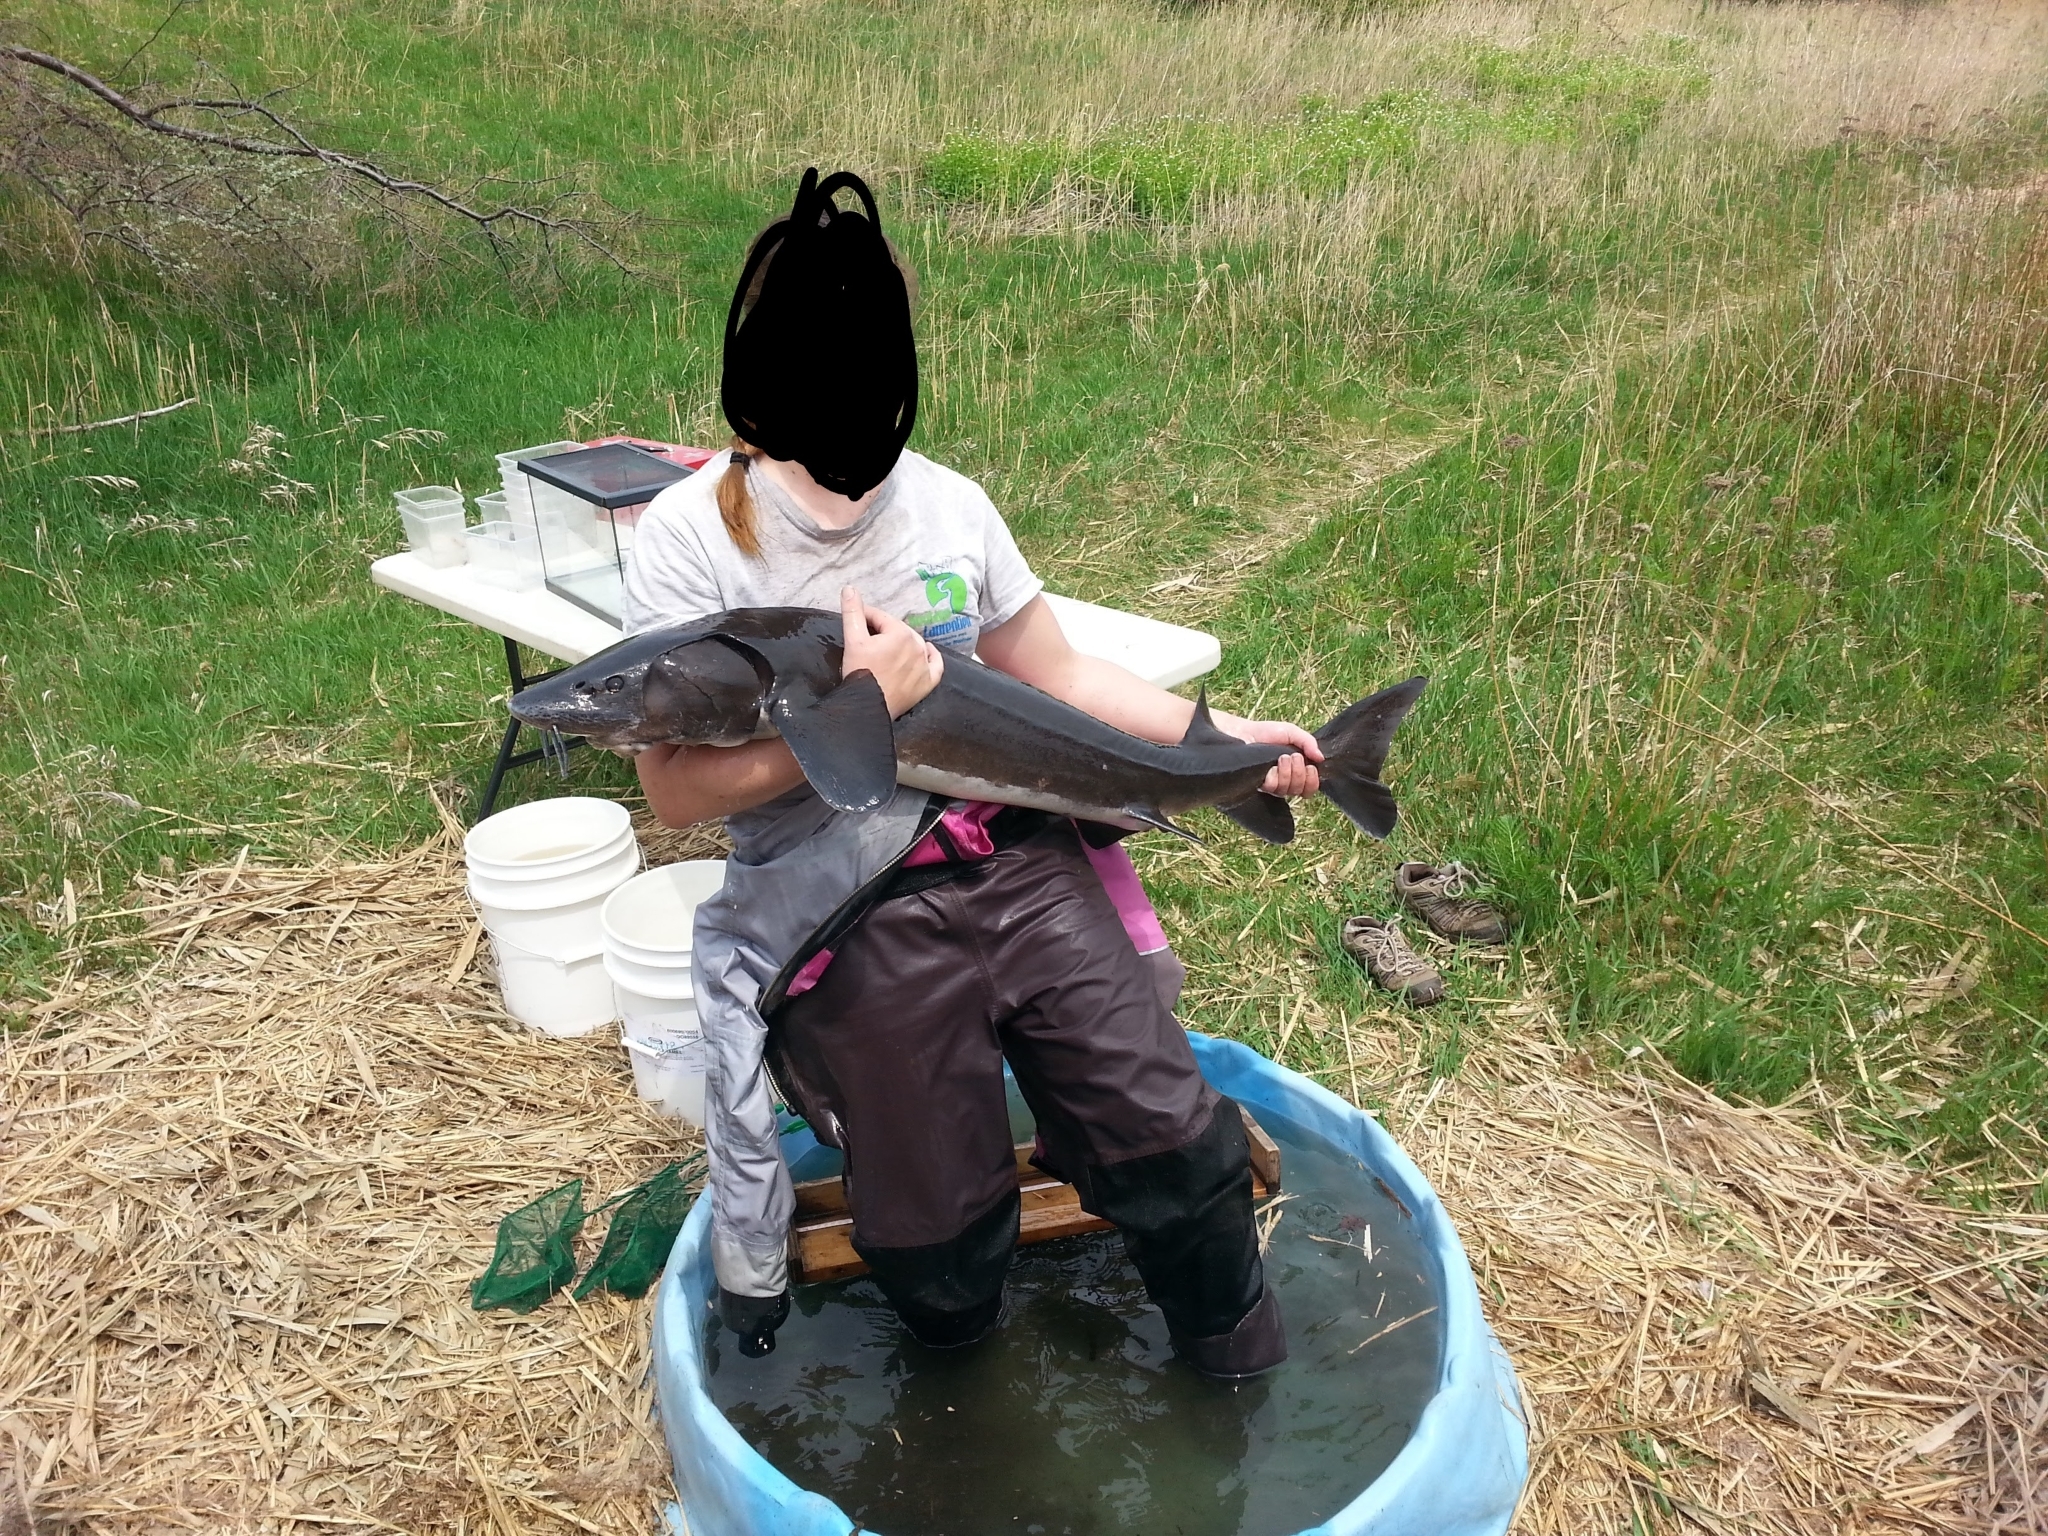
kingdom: Animalia
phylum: Chordata
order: Acipenseriformes
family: Acipenseridae
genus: Acipenser
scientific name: Acipenser fulvescens
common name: Lake sturgeon
